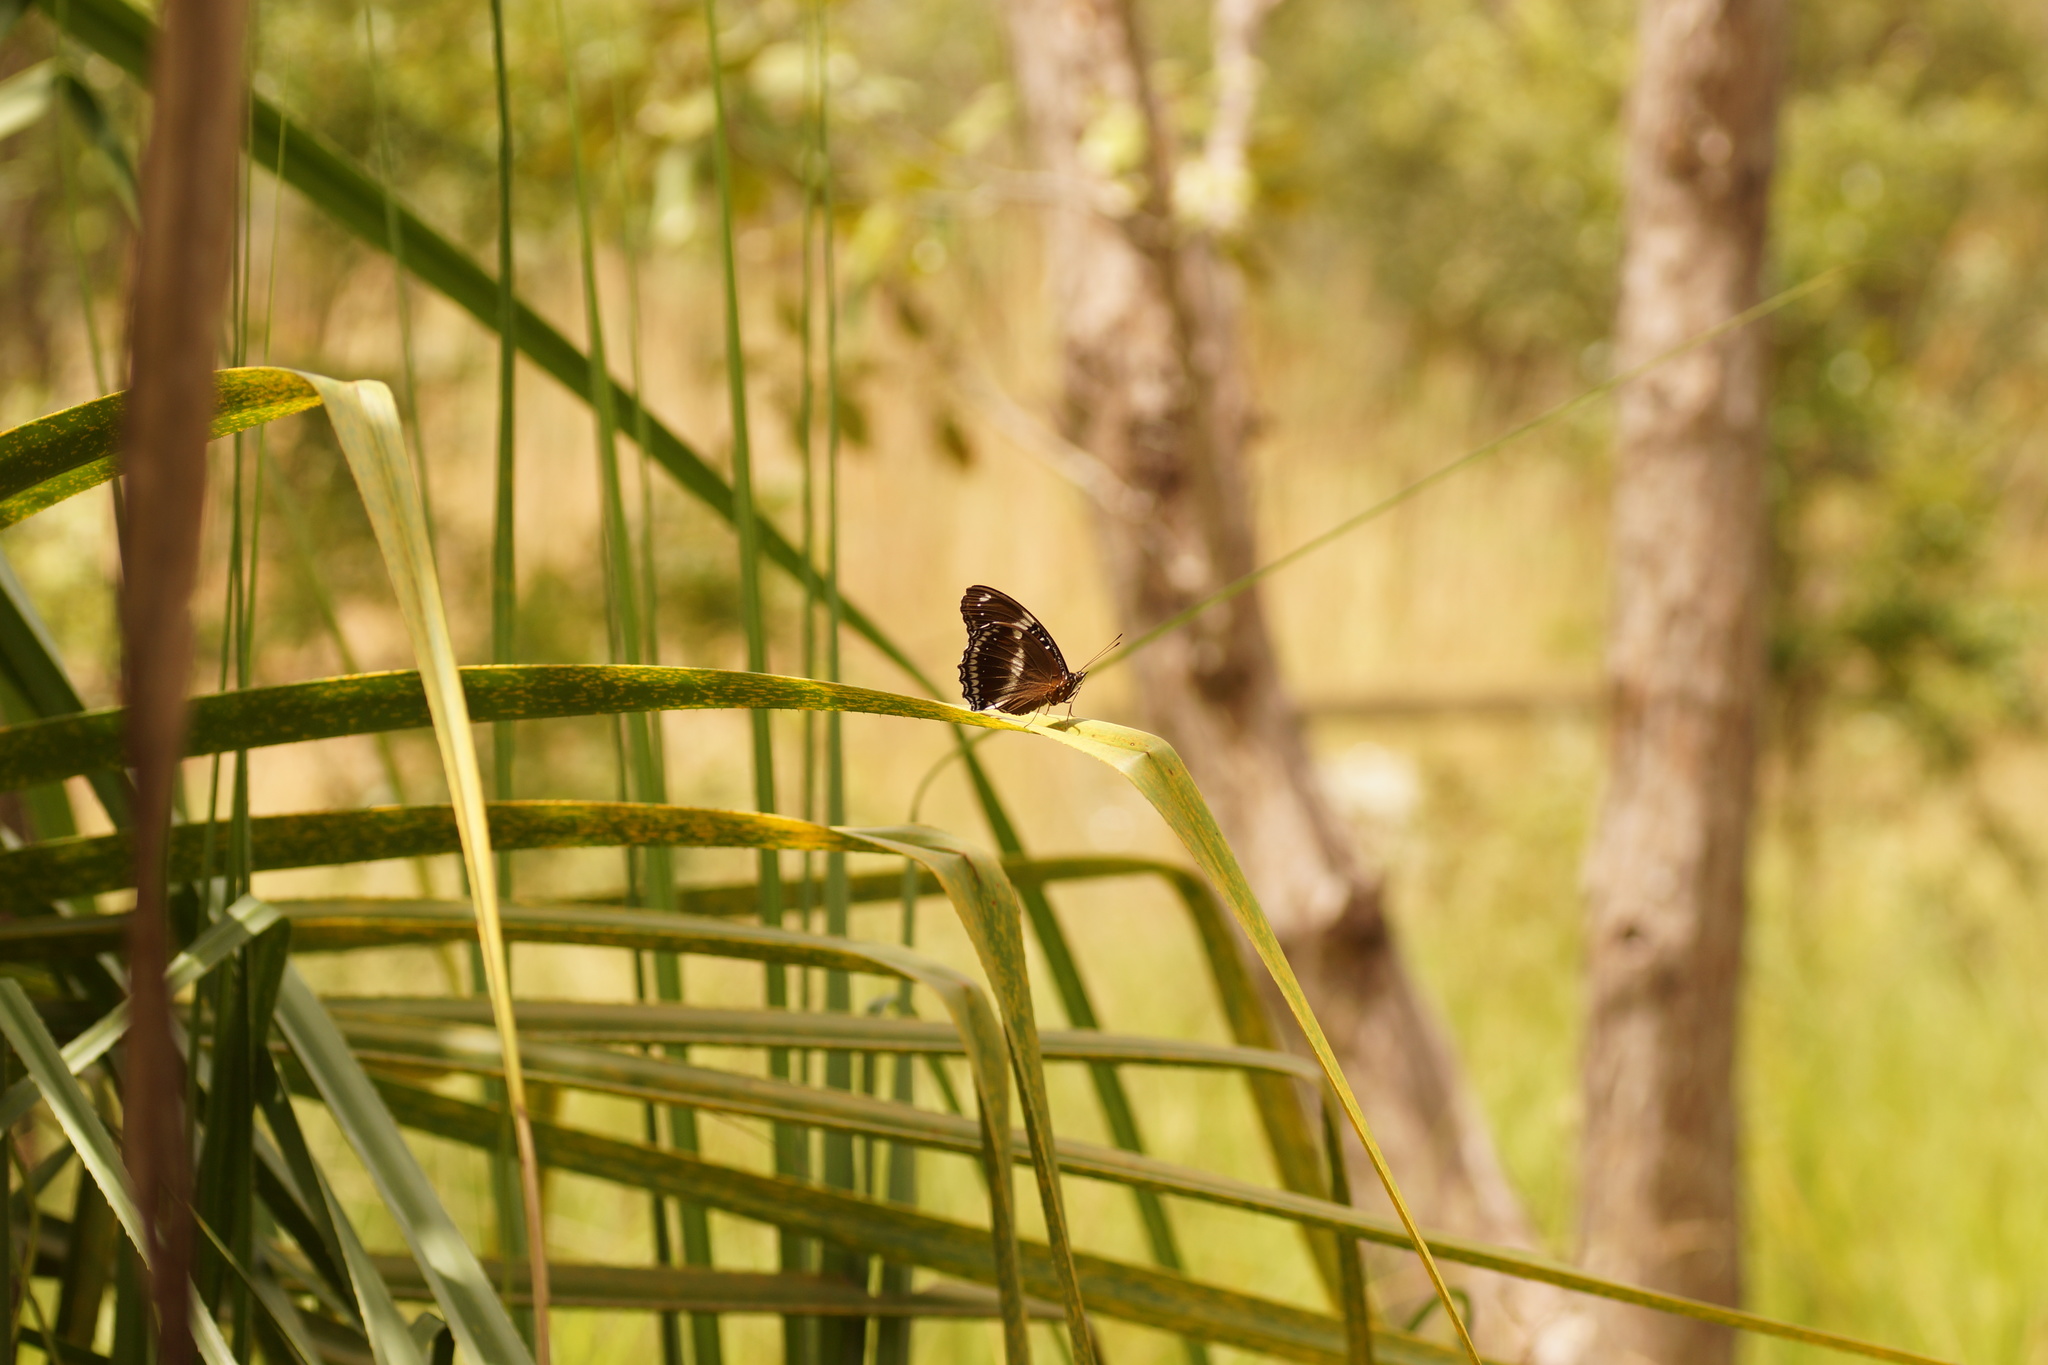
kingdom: Animalia
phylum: Arthropoda
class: Insecta
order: Lepidoptera
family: Nymphalidae
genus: Hypolimnas
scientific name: Hypolimnas bolina
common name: Great eggfly
